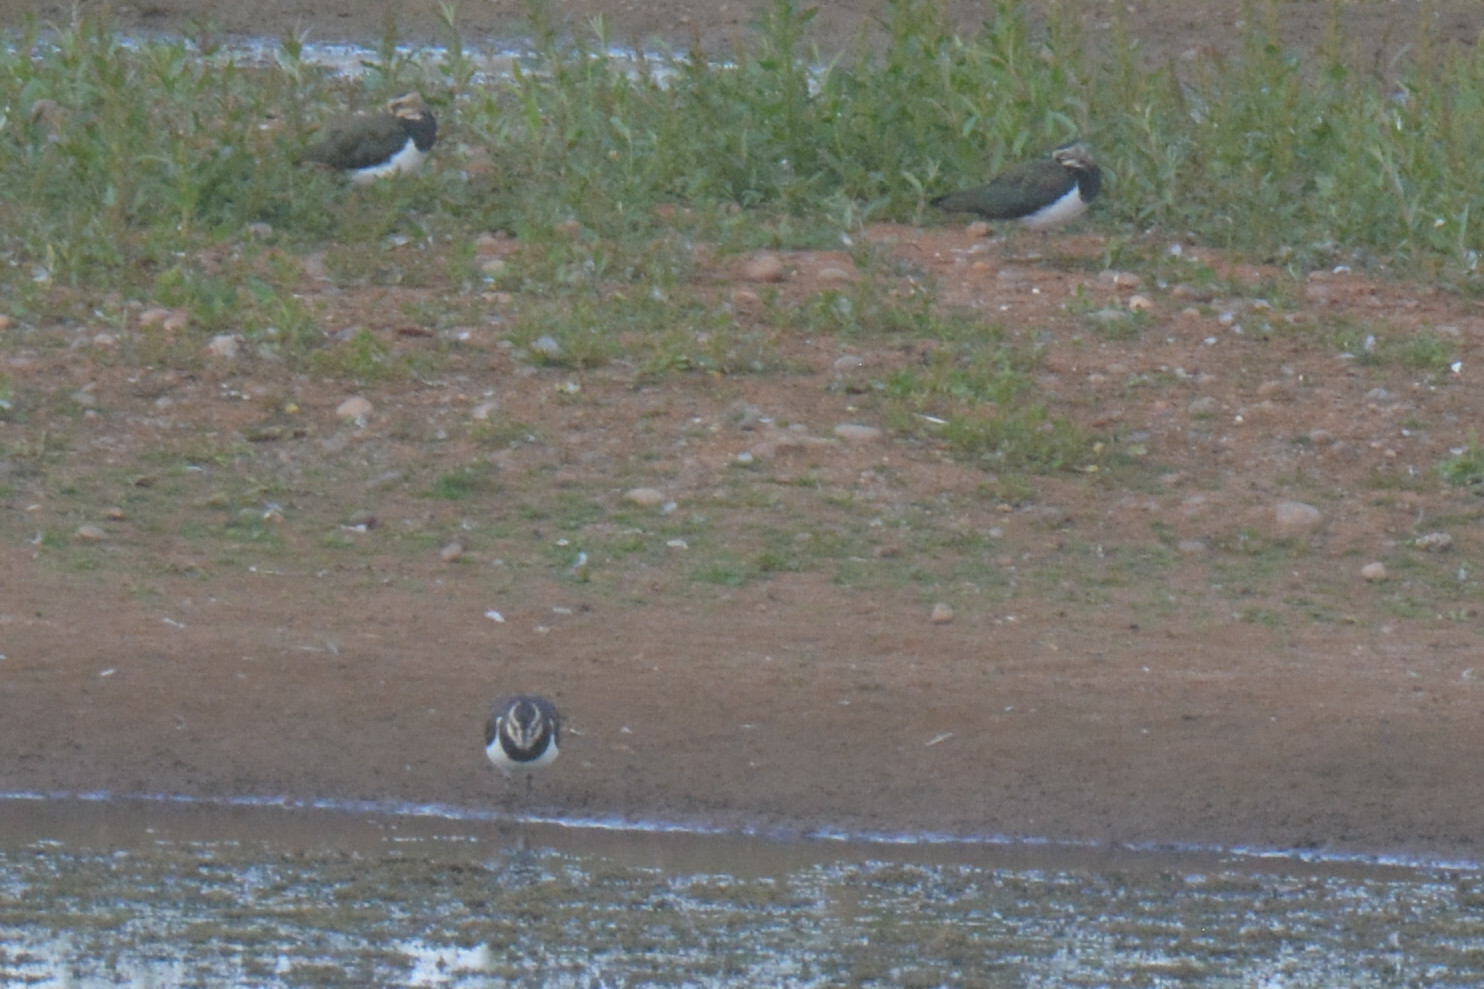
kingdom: Animalia
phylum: Chordata
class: Aves
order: Charadriiformes
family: Charadriidae
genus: Vanellus
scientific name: Vanellus vanellus
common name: Northern lapwing
